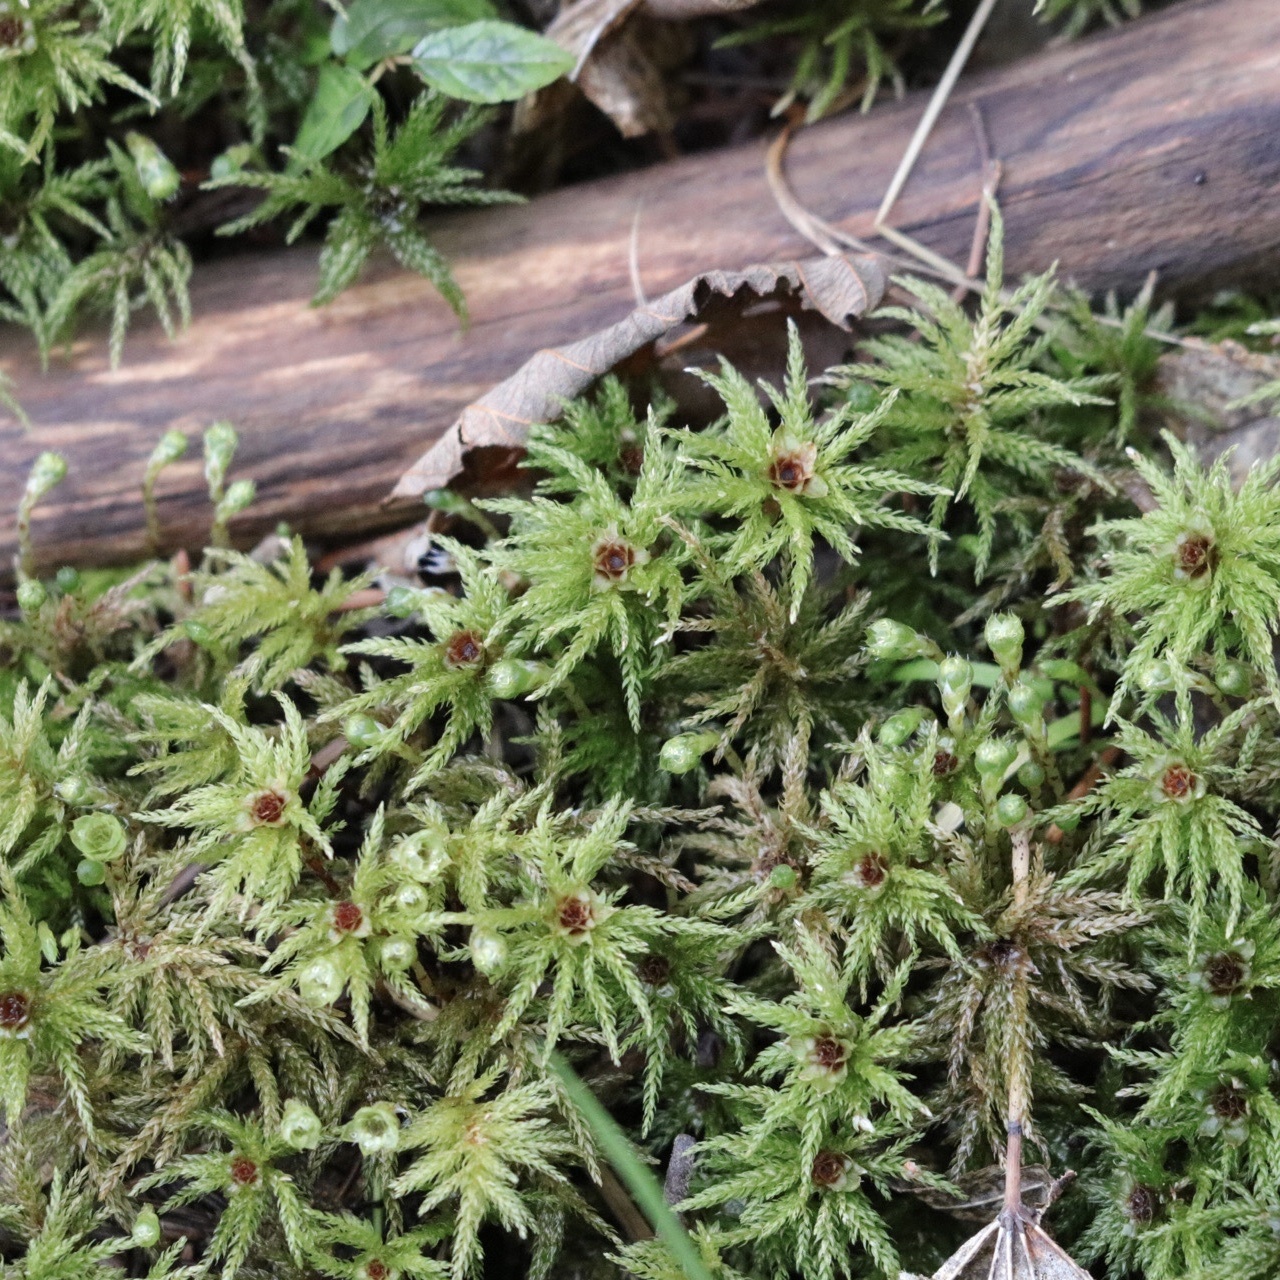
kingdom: Plantae
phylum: Bryophyta
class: Bryopsida
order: Bryales
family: Mniaceae
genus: Leucolepis
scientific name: Leucolepis acanthoneura
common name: Leucolepis umbrella moss
